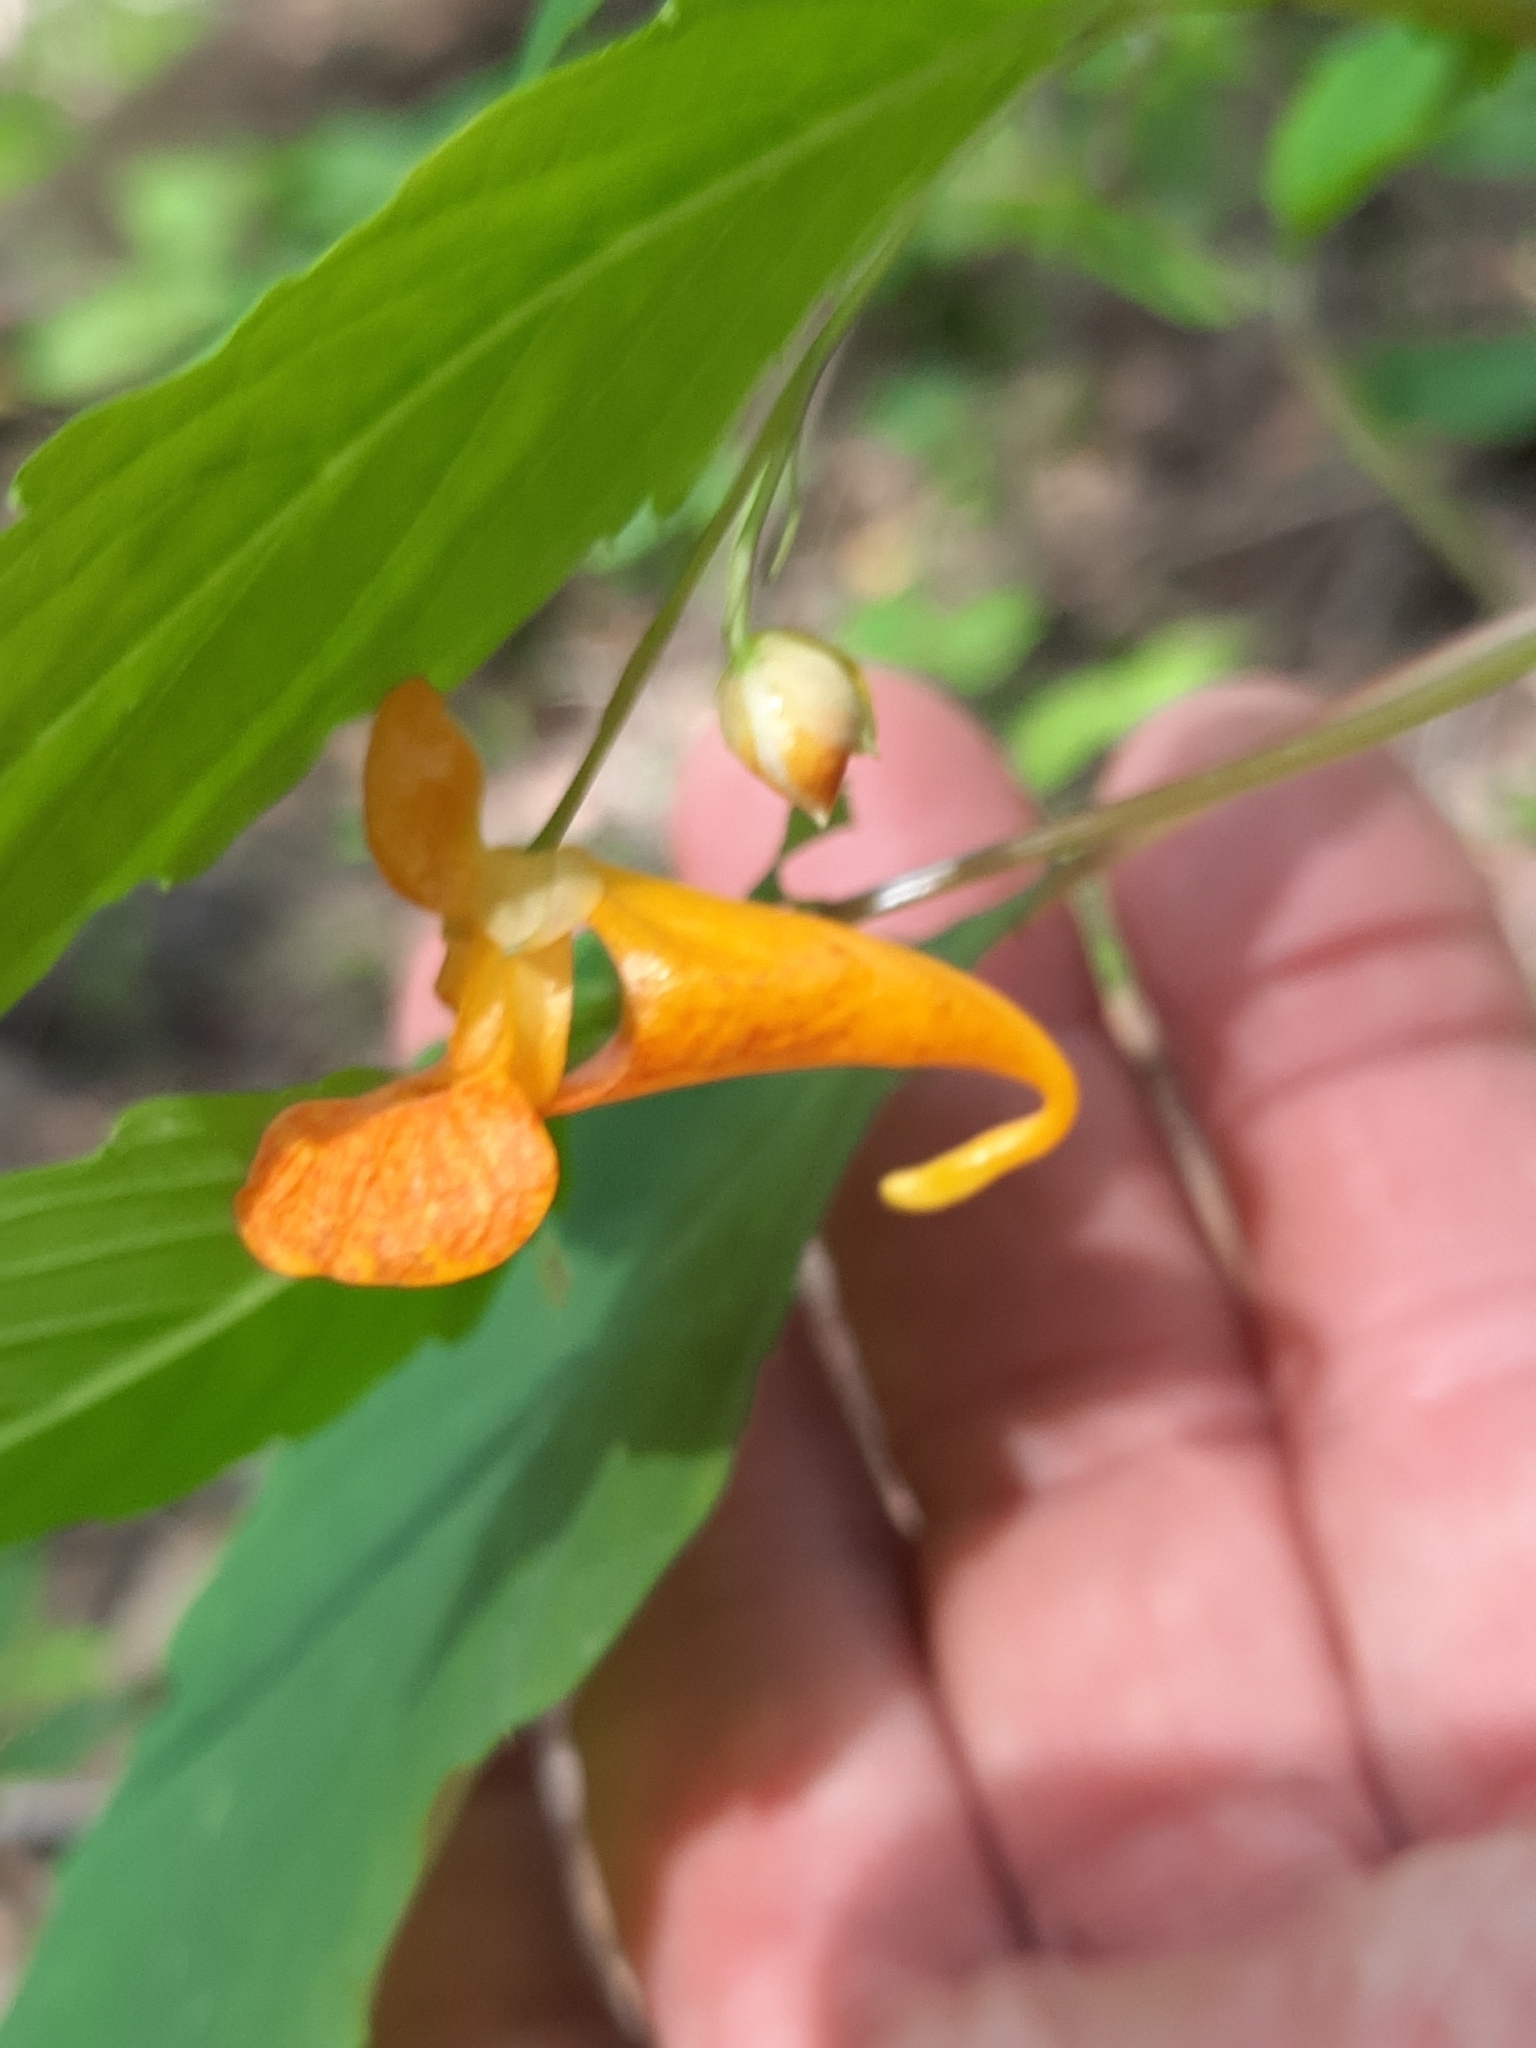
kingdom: Plantae
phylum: Tracheophyta
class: Magnoliopsida
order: Ericales
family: Balsaminaceae
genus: Impatiens
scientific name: Impatiens capensis
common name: Orange balsam
